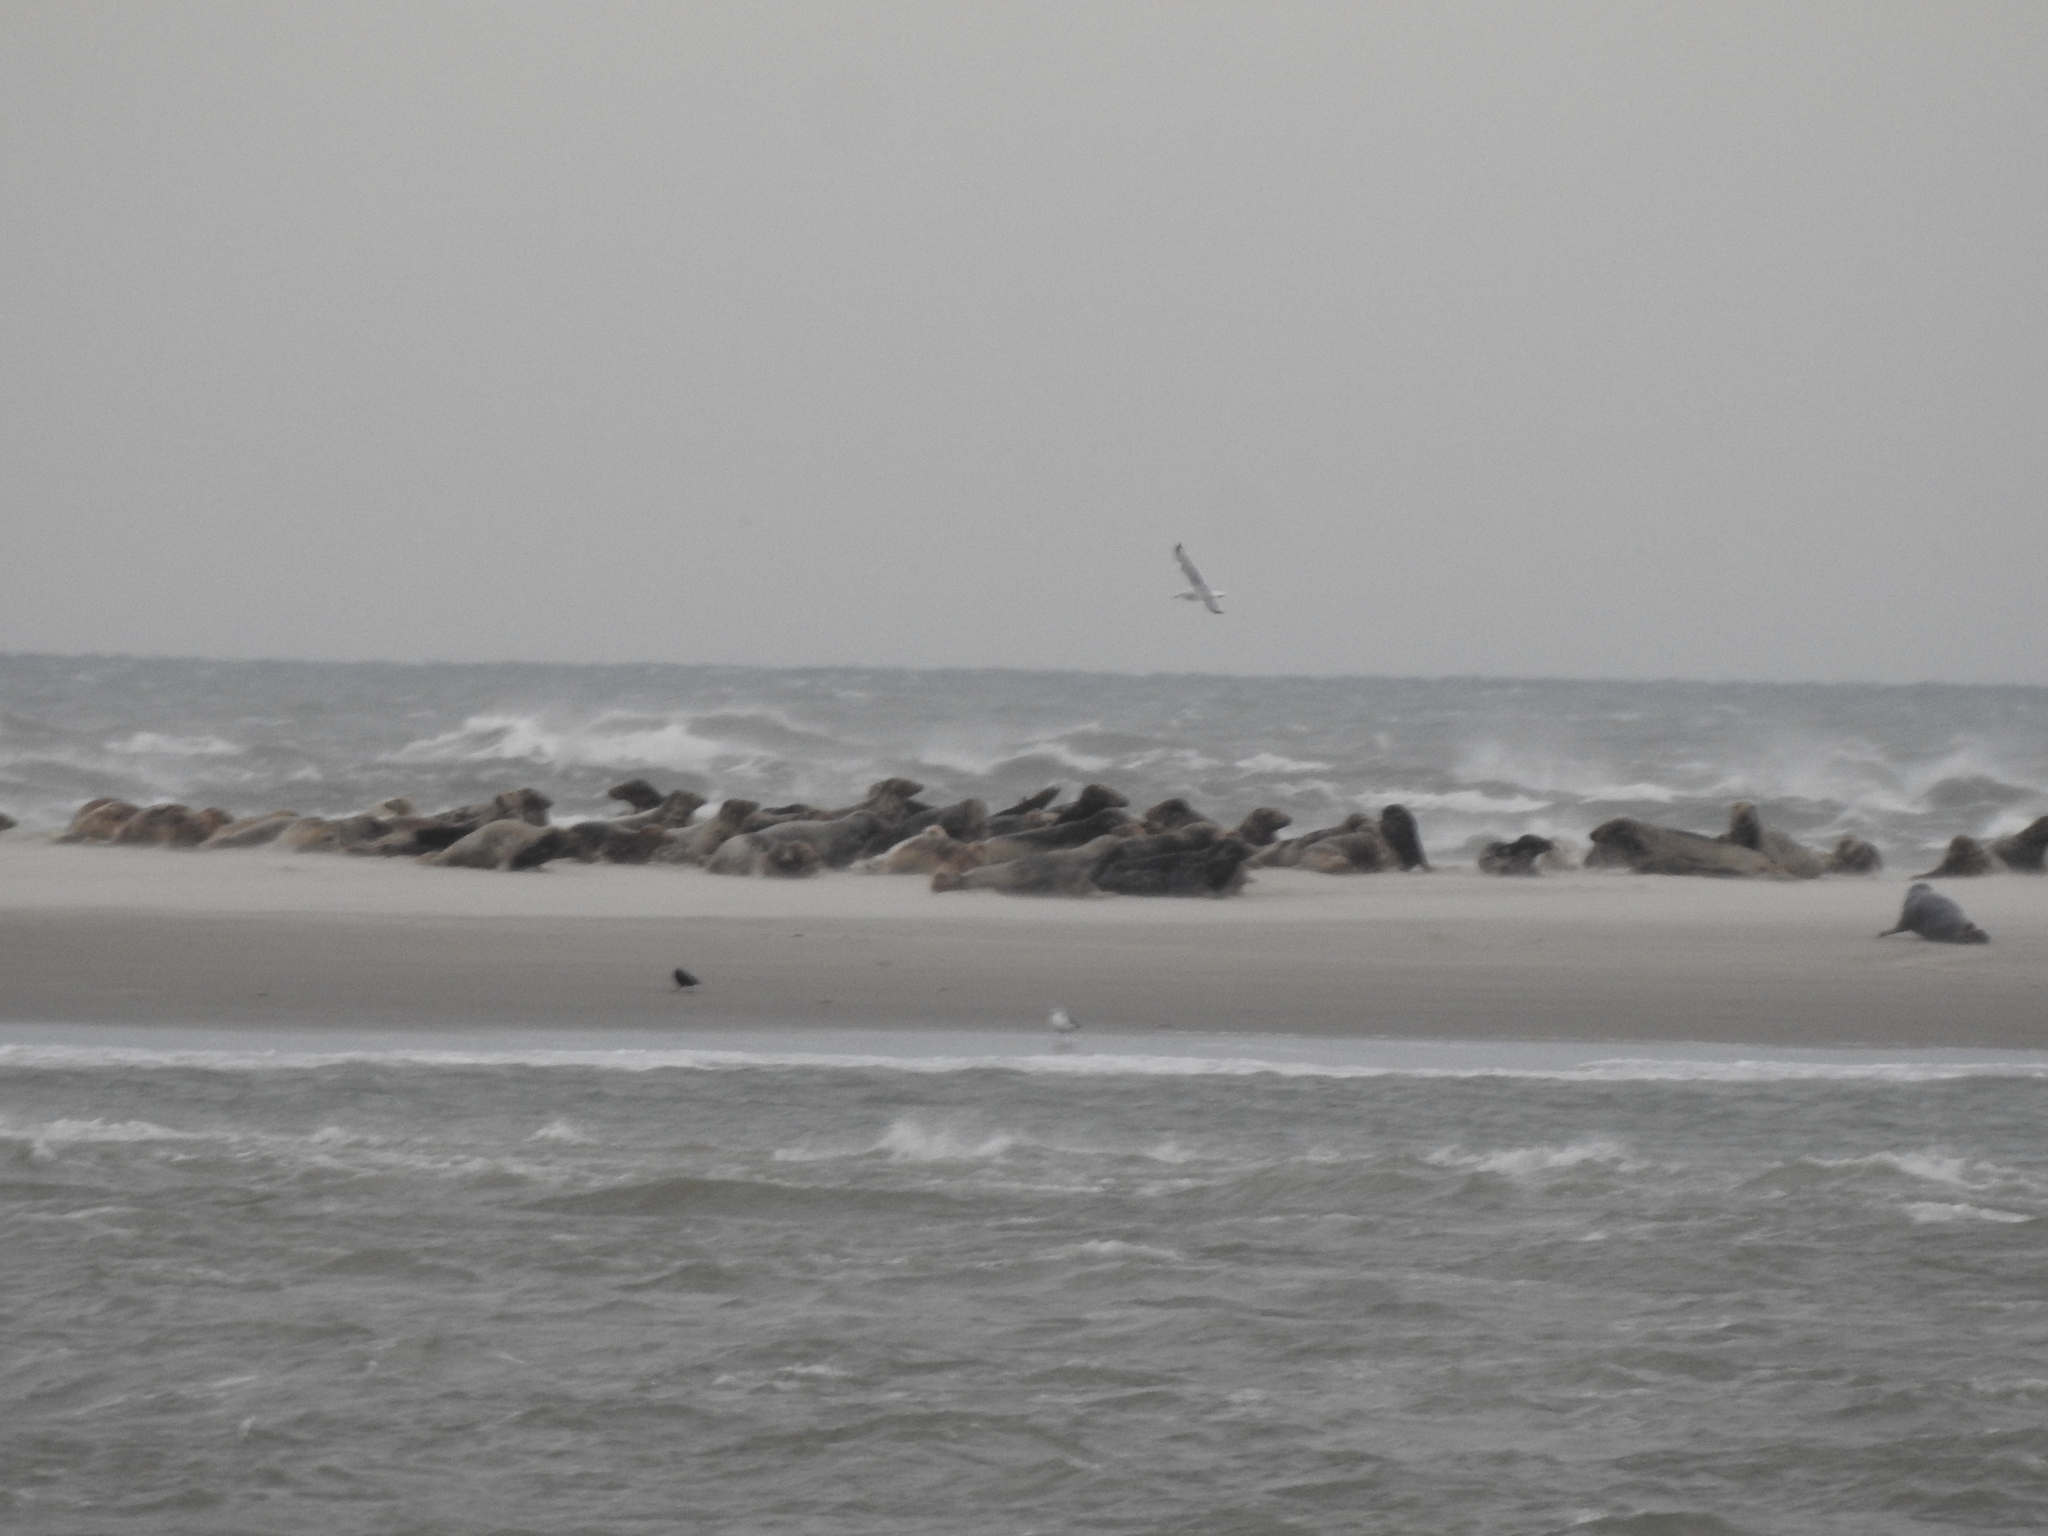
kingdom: Animalia
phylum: Chordata
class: Mammalia
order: Carnivora
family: Phocidae
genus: Halichoerus
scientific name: Halichoerus grypus
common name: Grey seal
